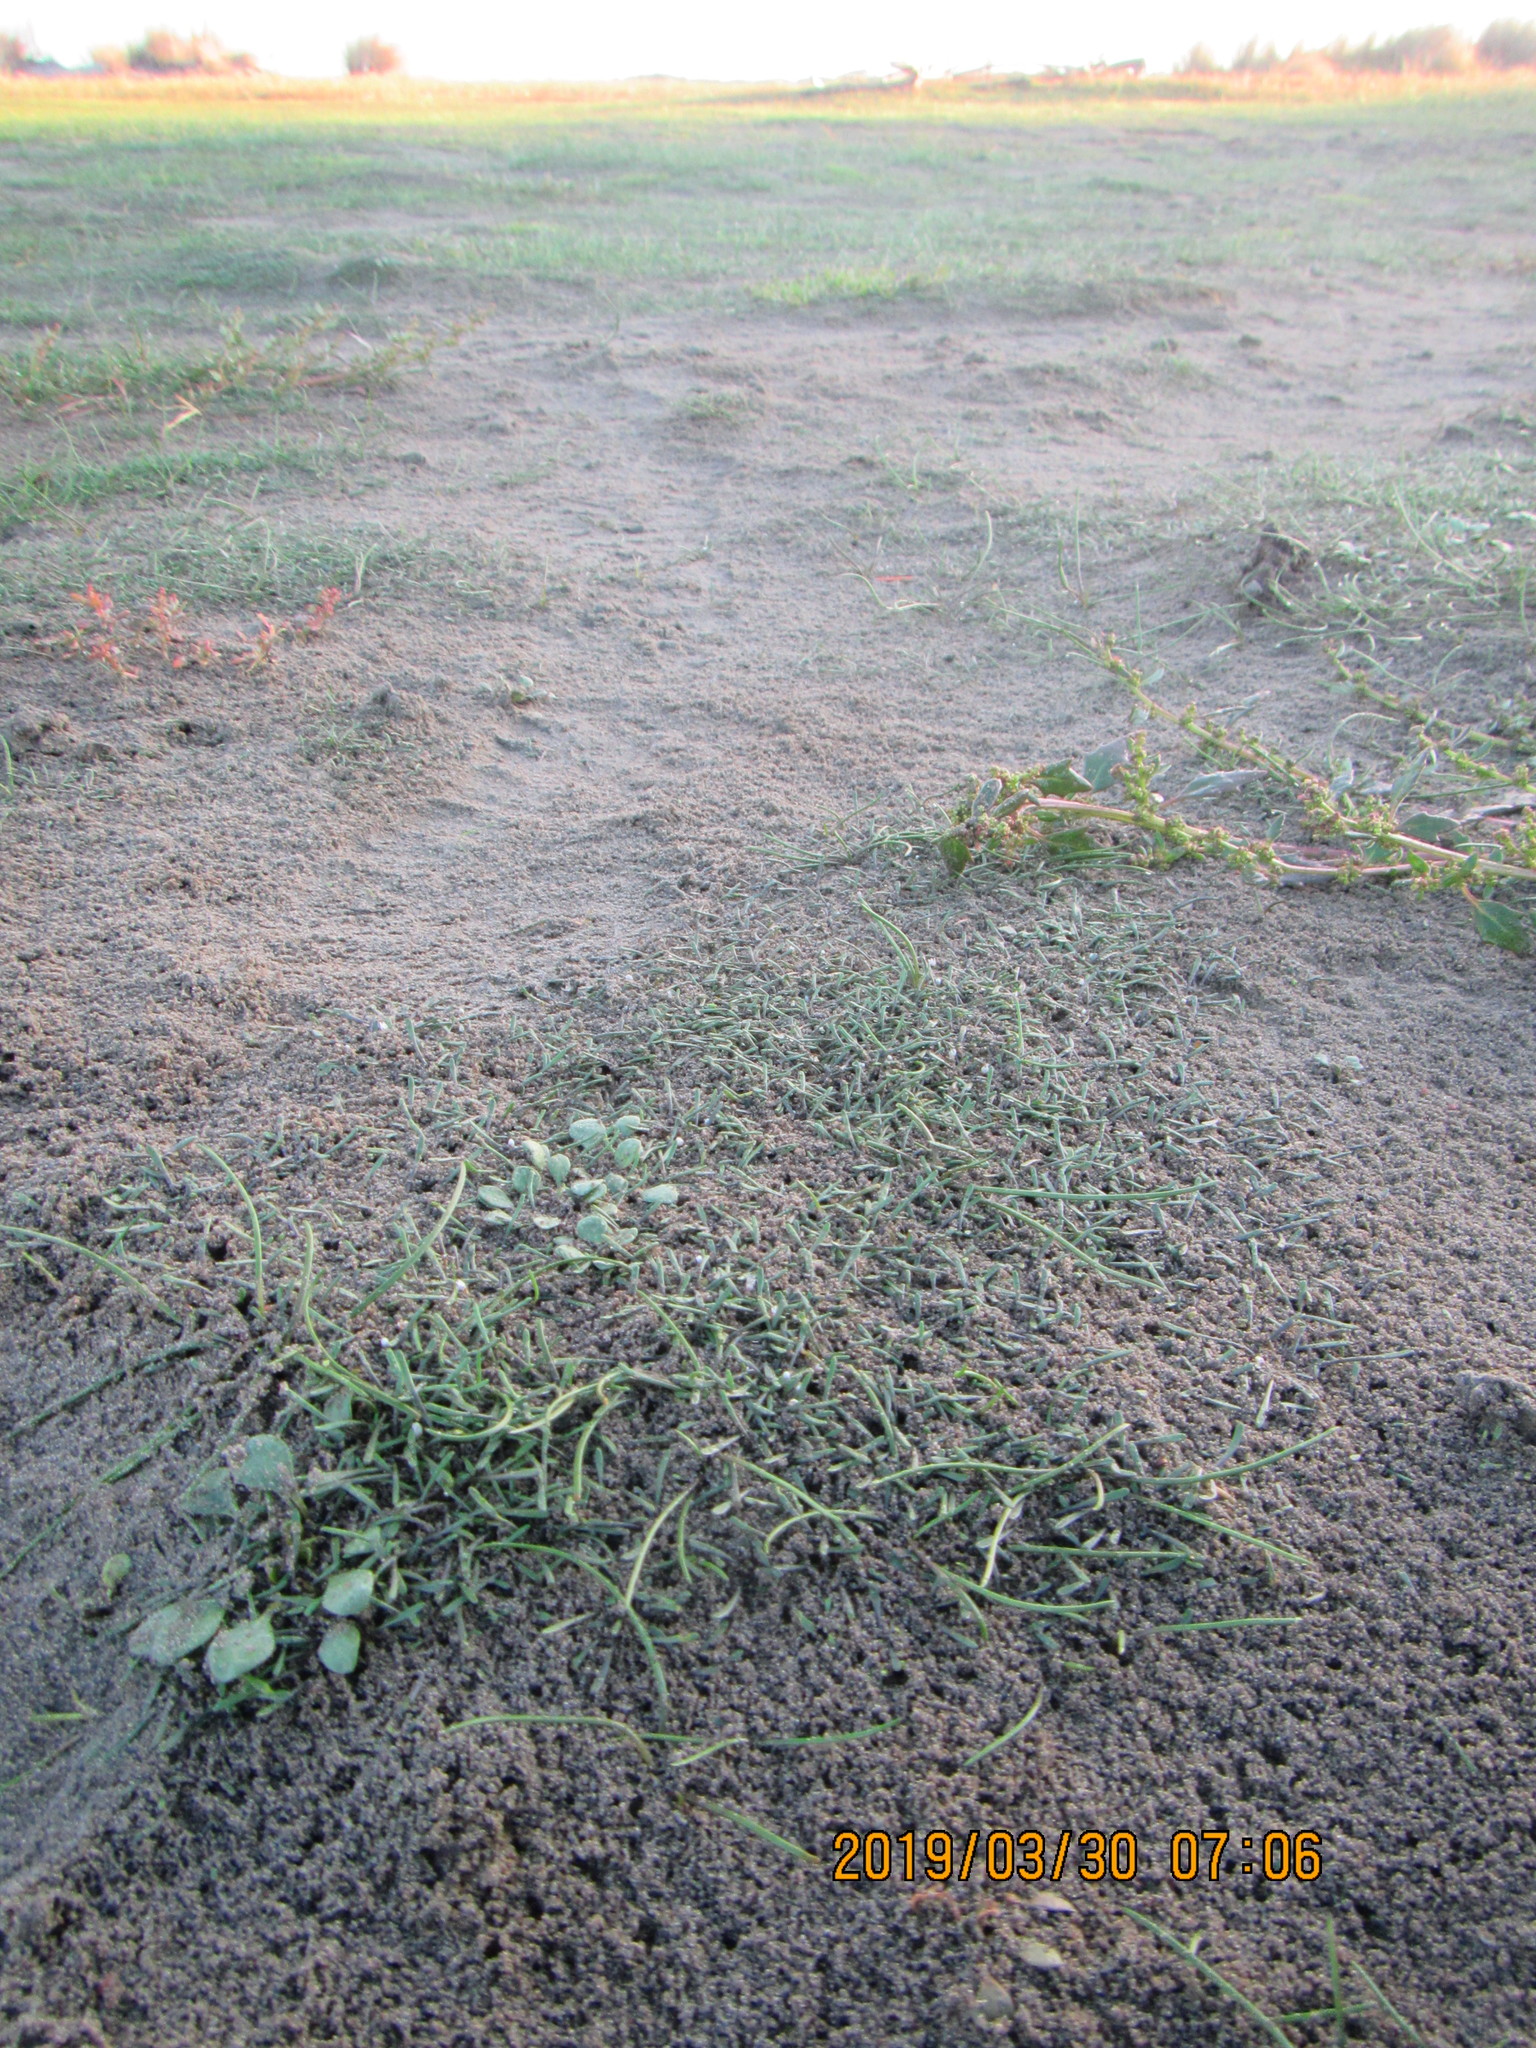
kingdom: Plantae
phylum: Tracheophyta
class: Magnoliopsida
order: Lamiales
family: Scrophulariaceae
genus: Limosella
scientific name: Limosella australis
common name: Welsh mudwort
